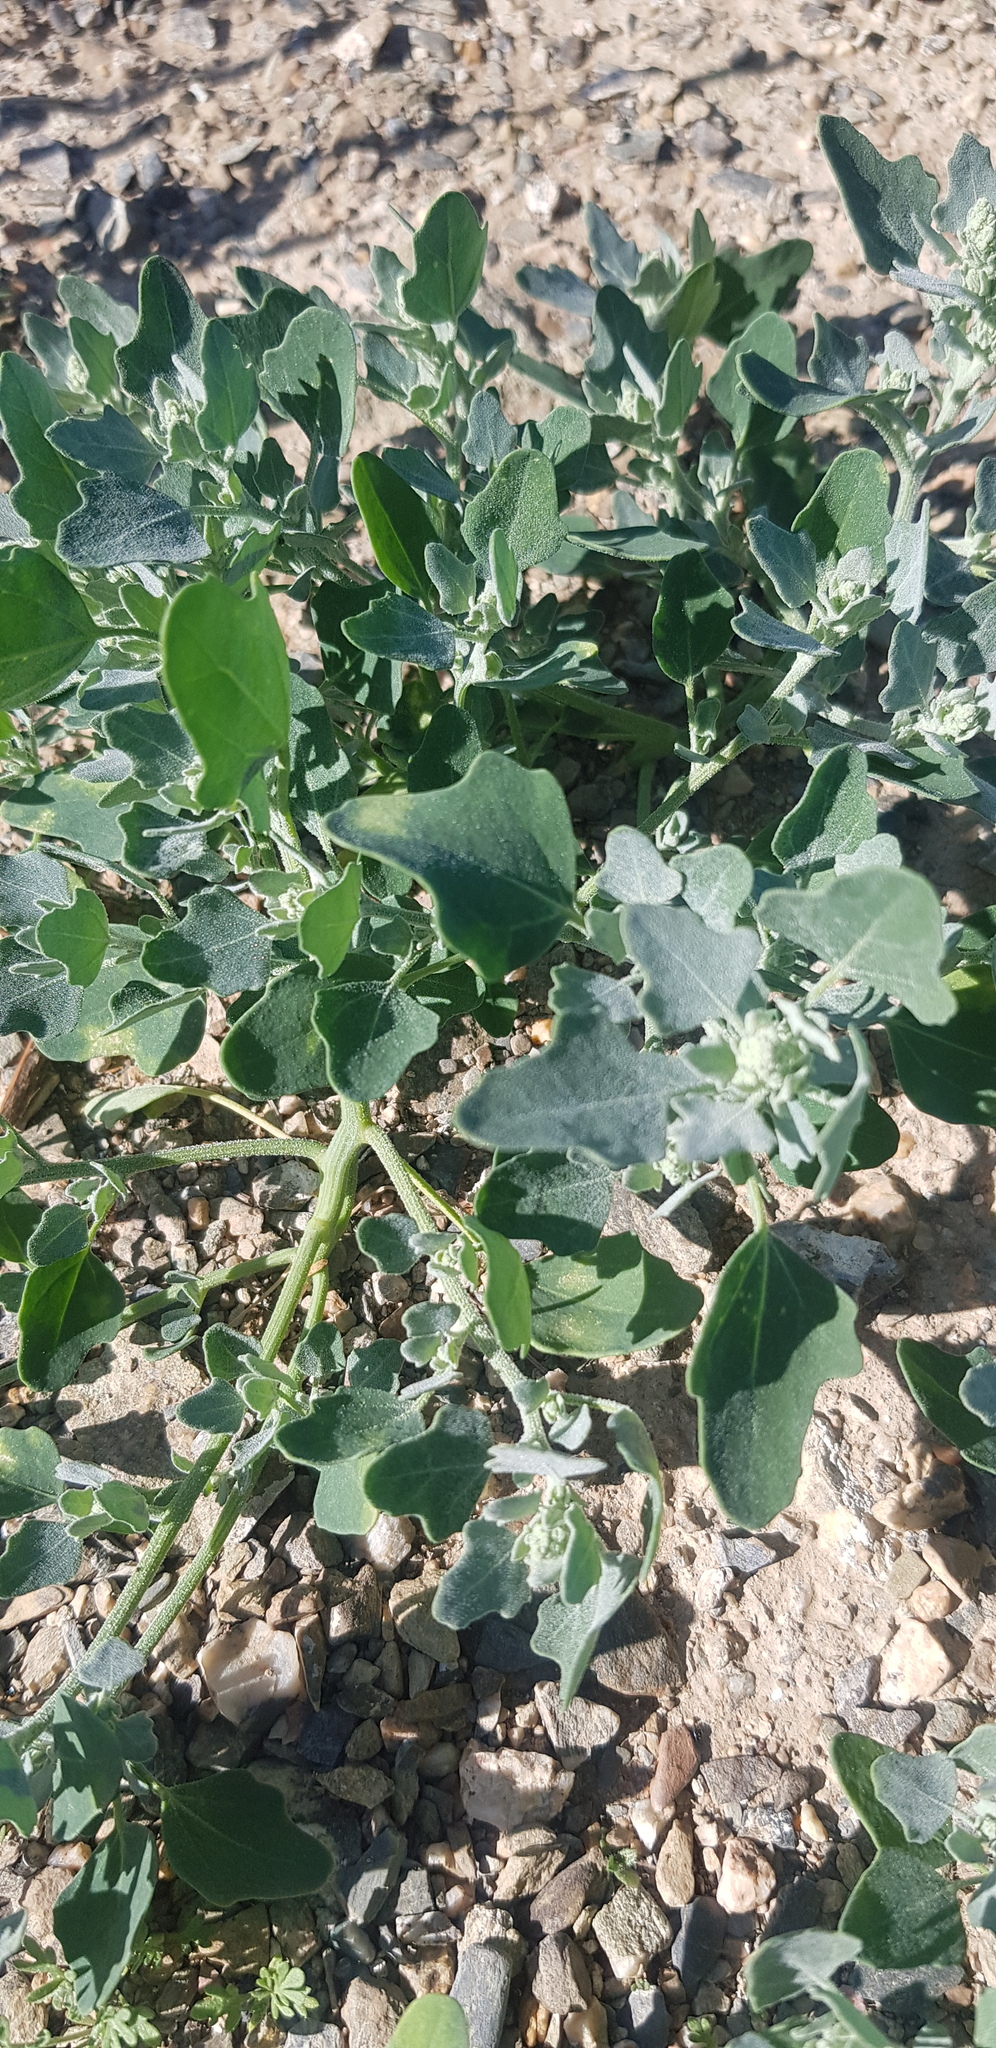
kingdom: Plantae
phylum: Tracheophyta
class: Magnoliopsida
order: Caryophyllales
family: Amaranthaceae
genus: Chenopodium
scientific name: Chenopodium karoi
